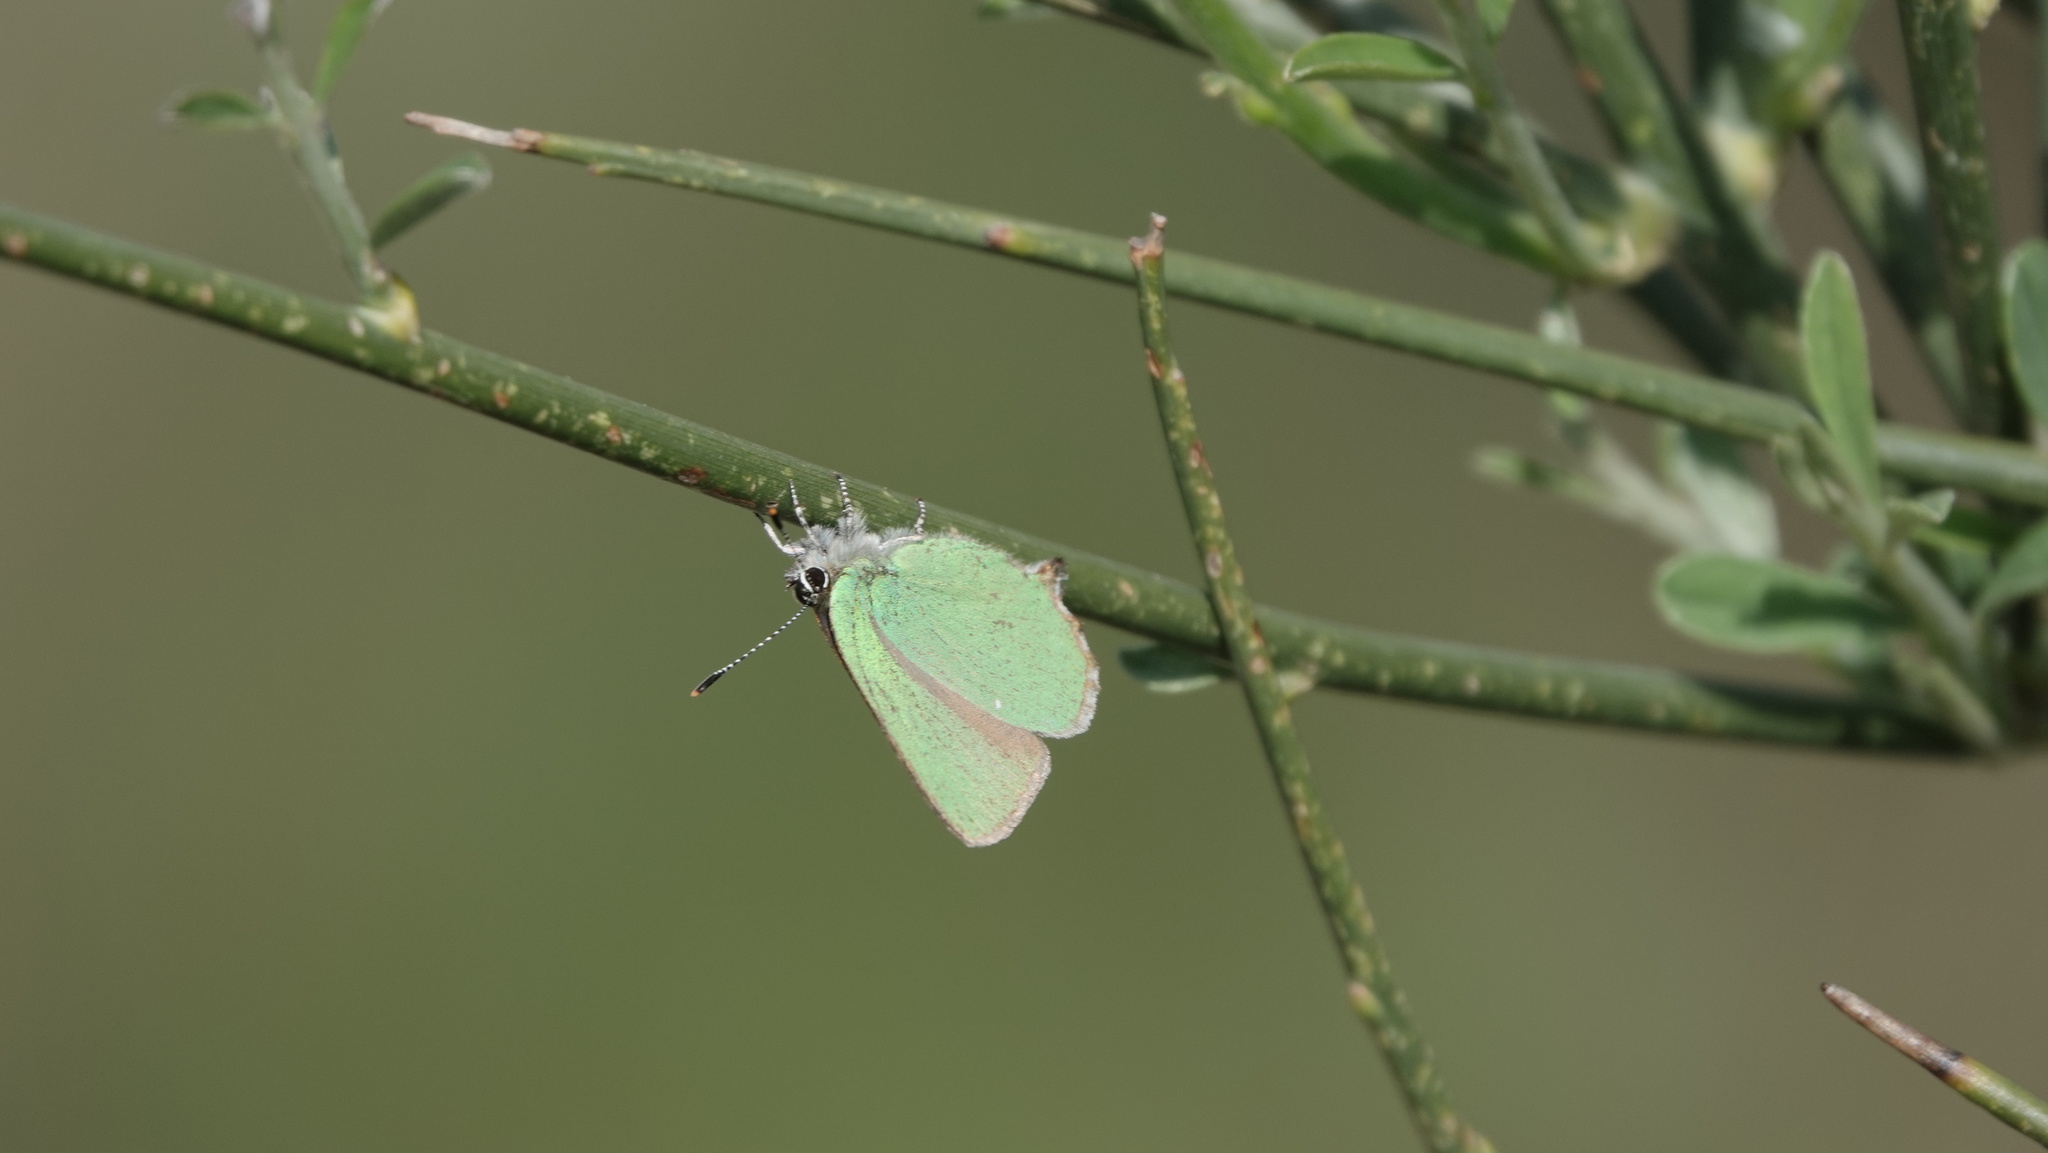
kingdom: Animalia
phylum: Arthropoda
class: Insecta
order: Lepidoptera
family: Lycaenidae
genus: Callophrys
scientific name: Callophrys rubi
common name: Green hairstreak
